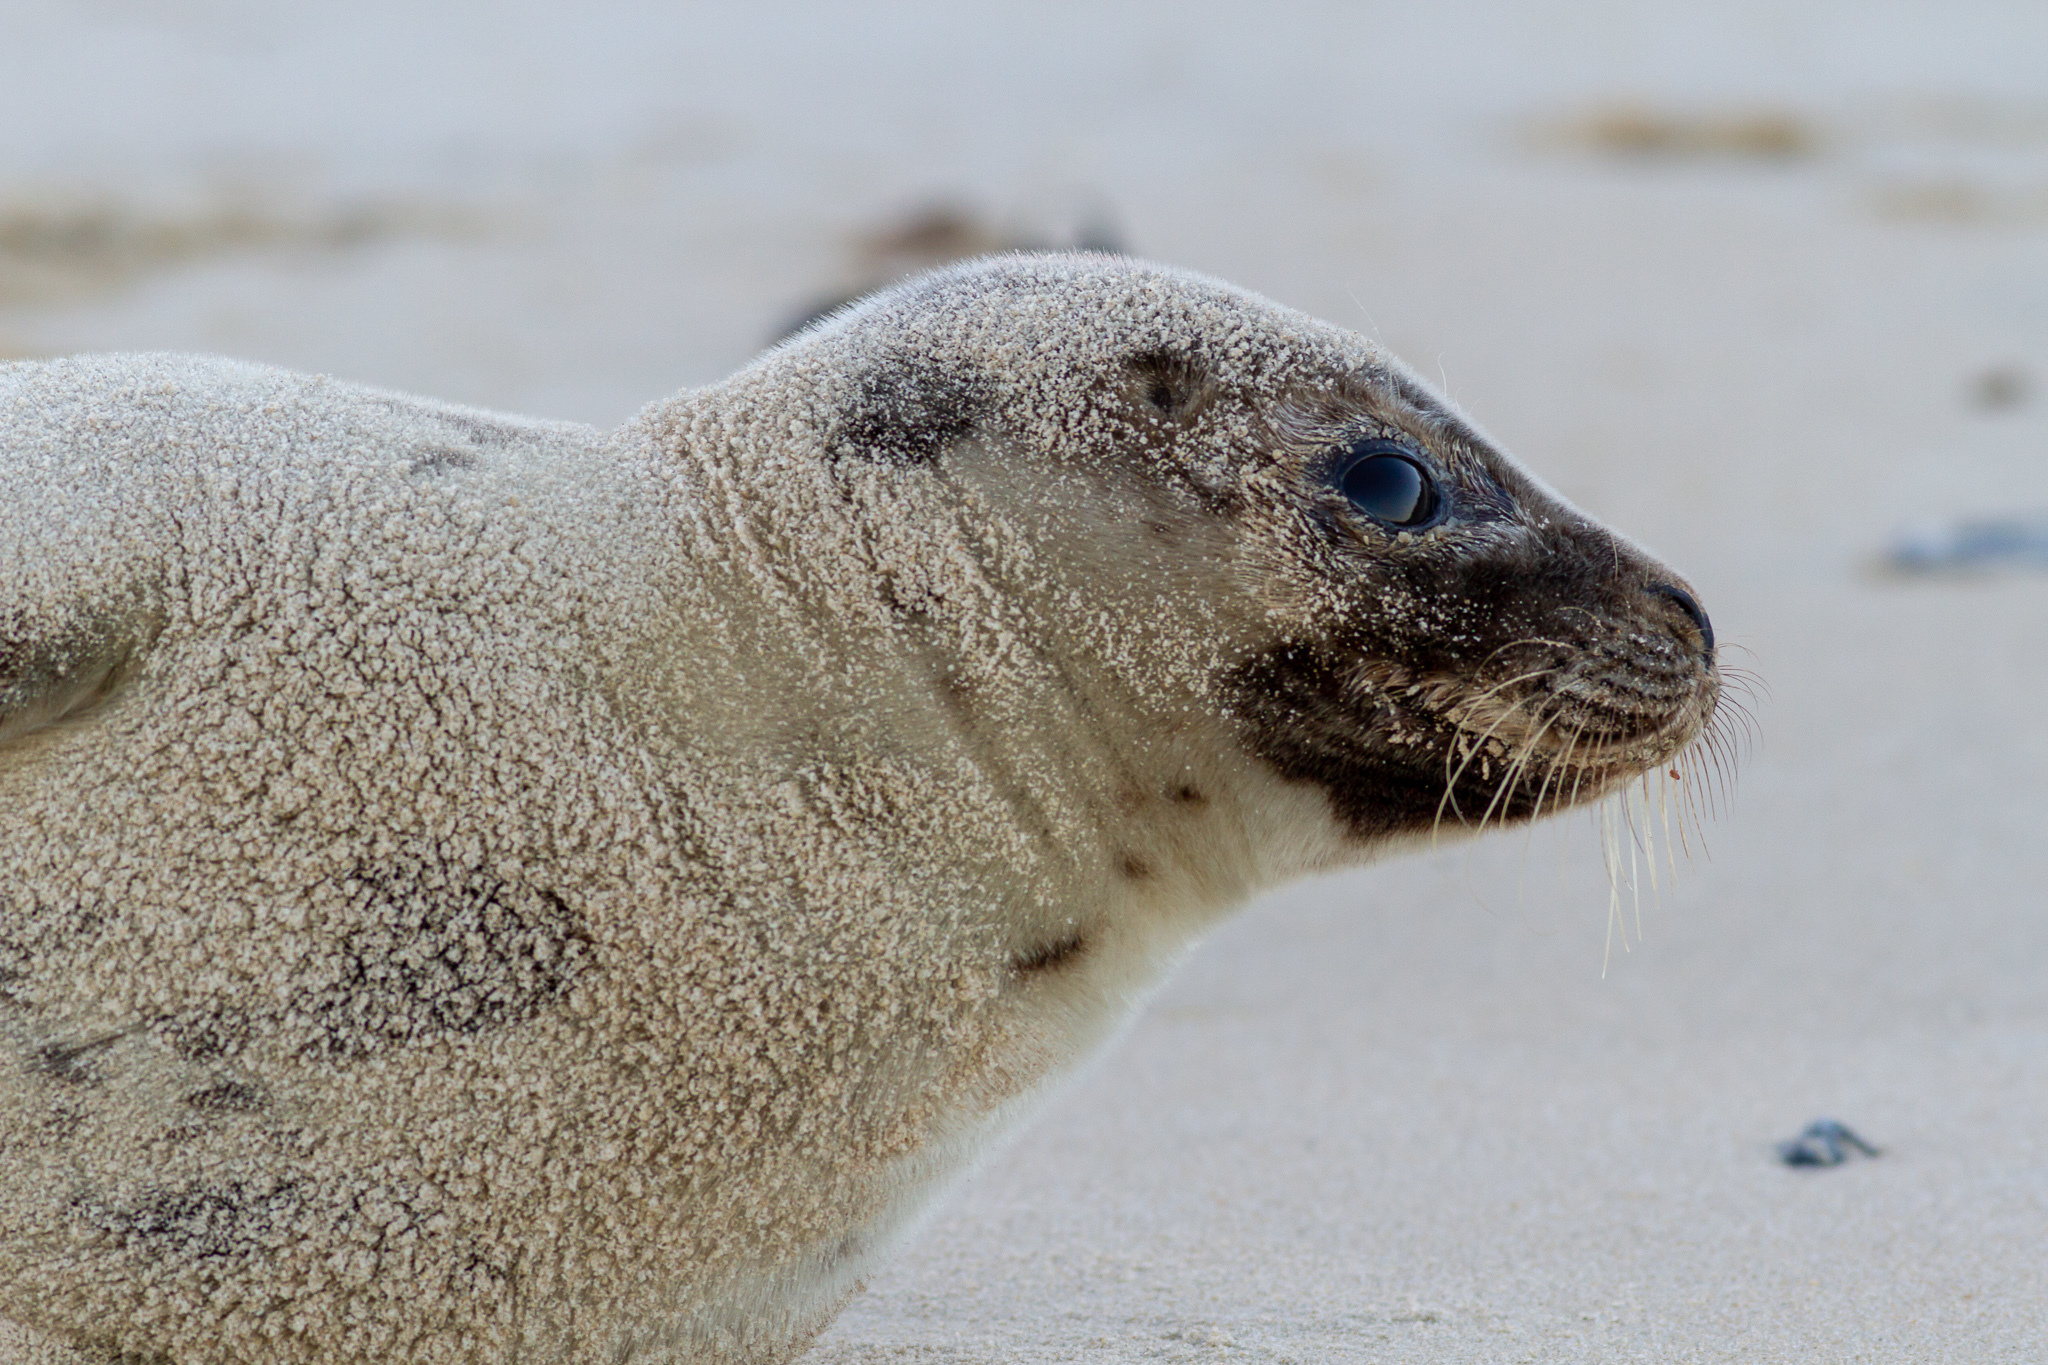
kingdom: Animalia
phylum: Chordata
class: Mammalia
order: Carnivora
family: Phocidae
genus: Pagophilus
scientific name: Pagophilus groenlandicus
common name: Harp seal
